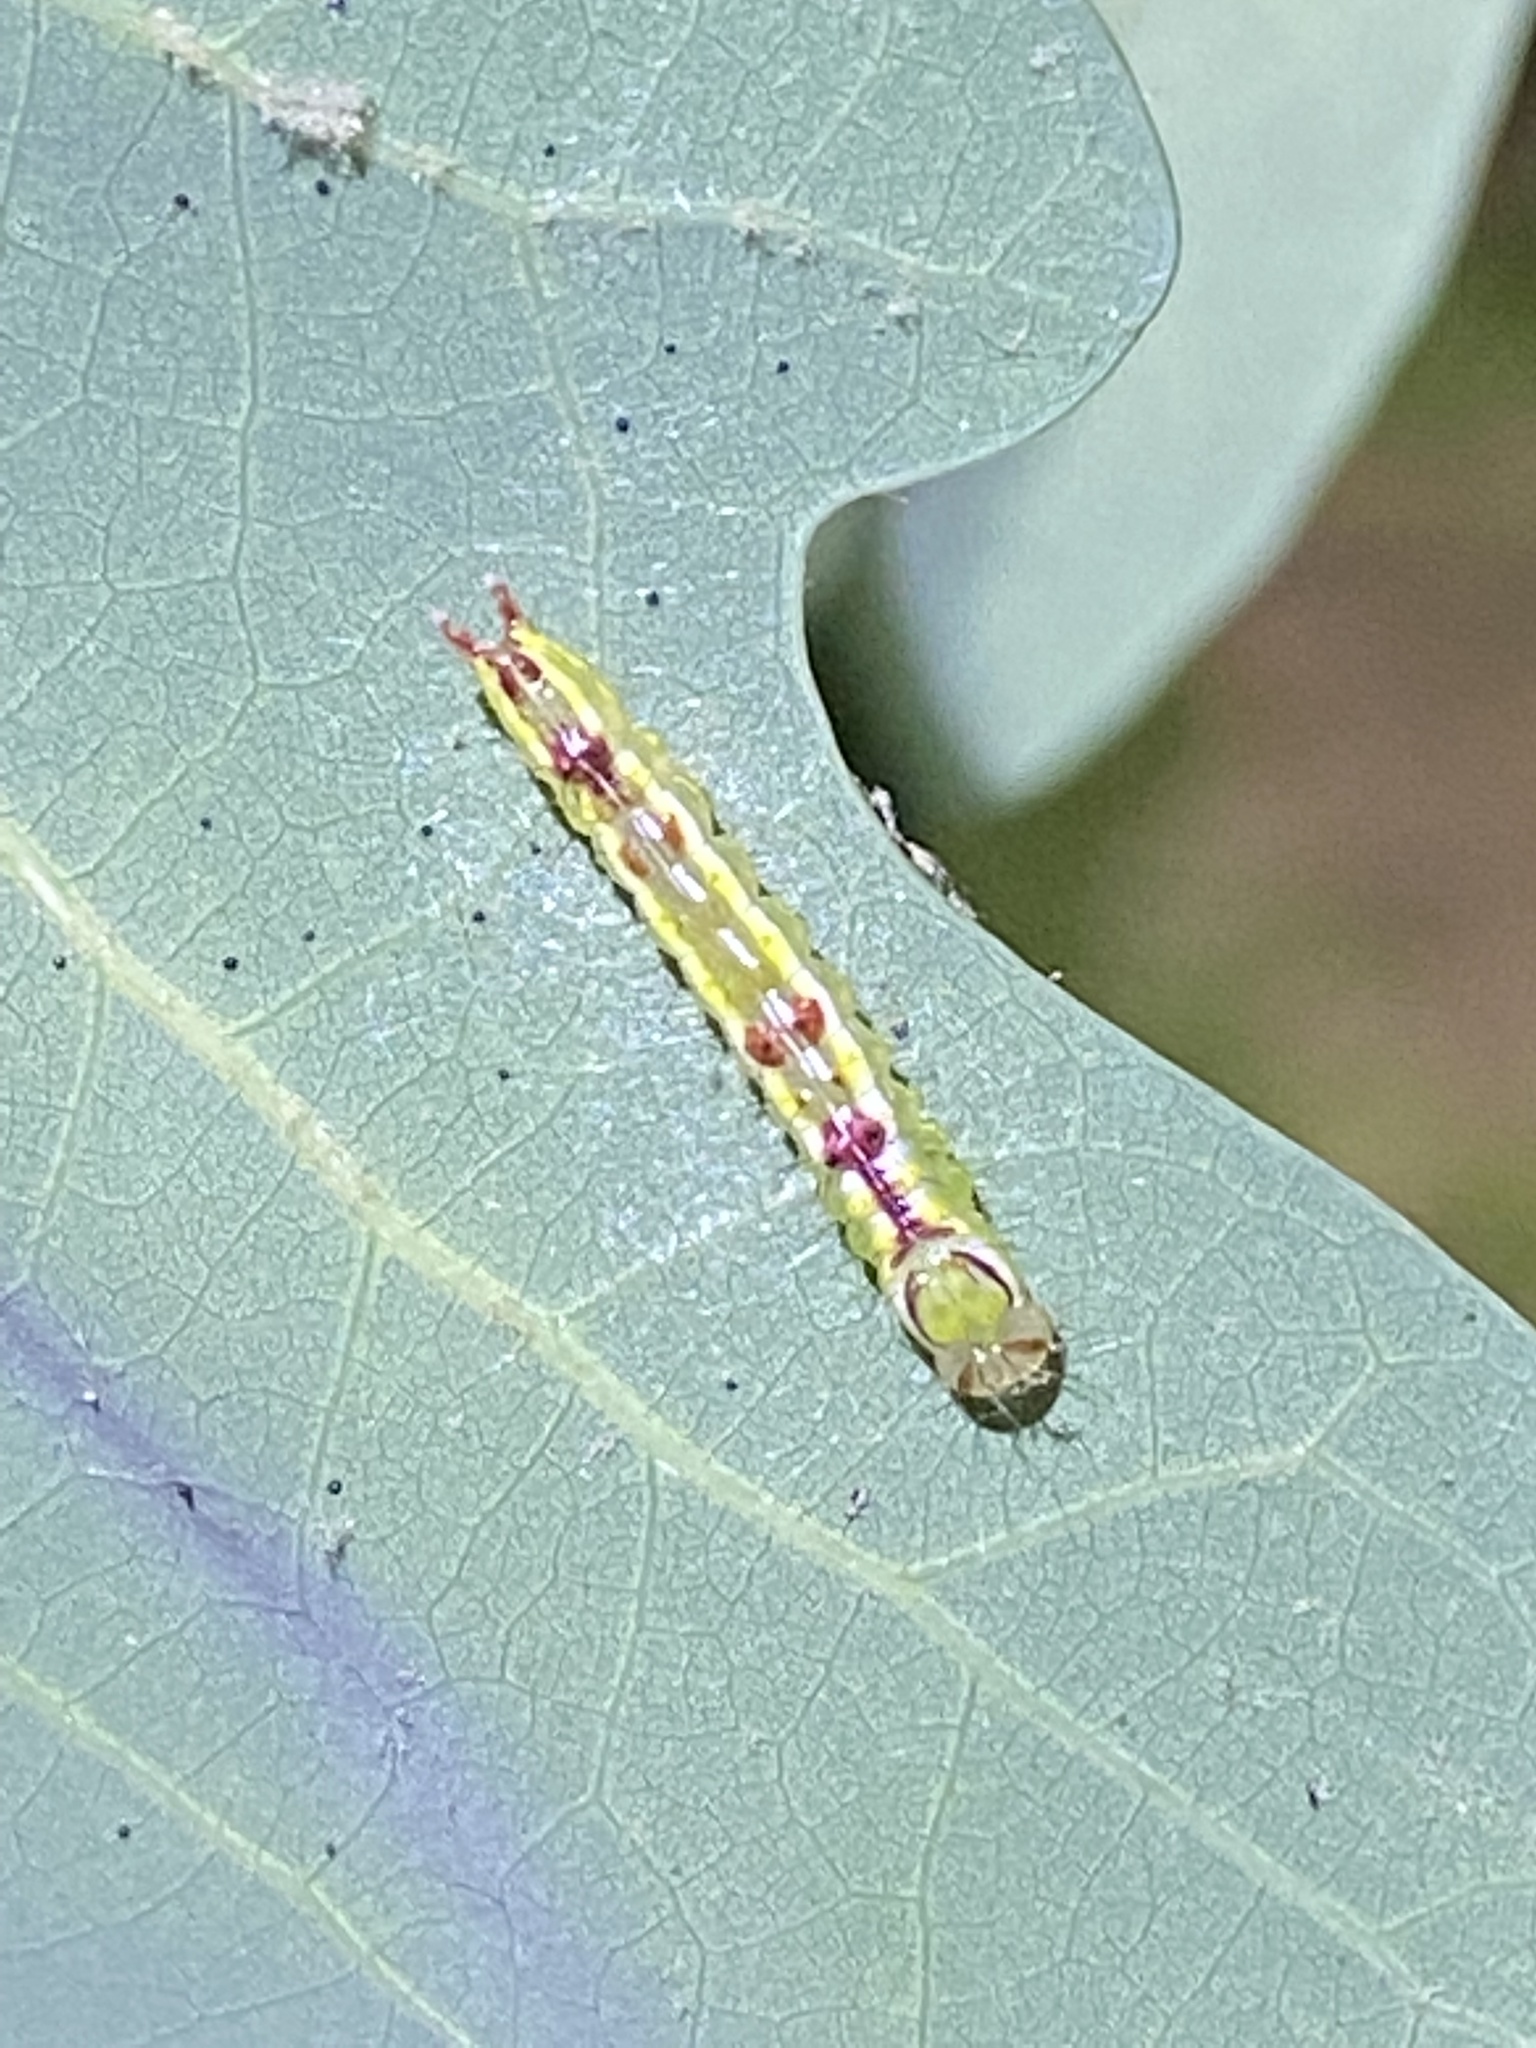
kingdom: Animalia
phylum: Arthropoda
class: Insecta
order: Lepidoptera
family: Notodontidae
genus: Lochmaeus
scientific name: Lochmaeus manteo
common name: Variable oakleaf caterpillar moth
